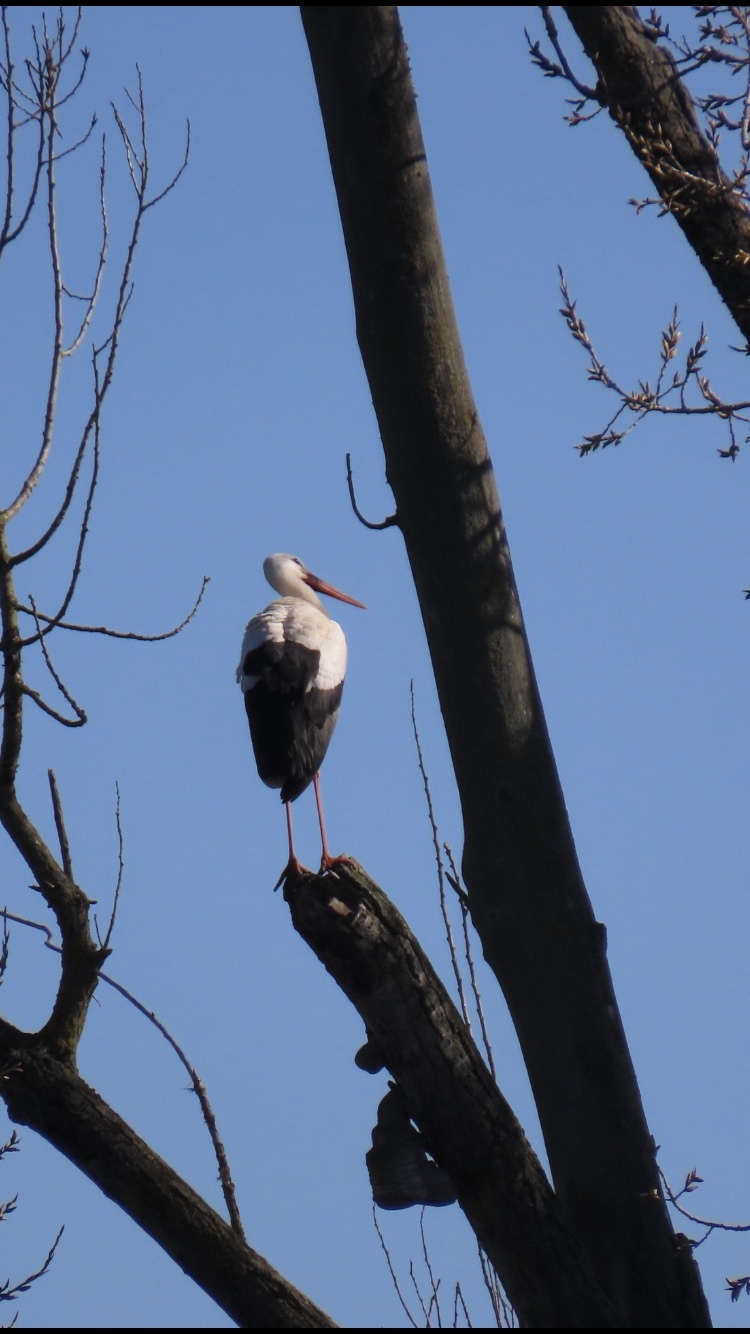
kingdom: Animalia
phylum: Chordata
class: Aves
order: Ciconiiformes
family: Ciconiidae
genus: Ciconia
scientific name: Ciconia ciconia
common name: White stork
